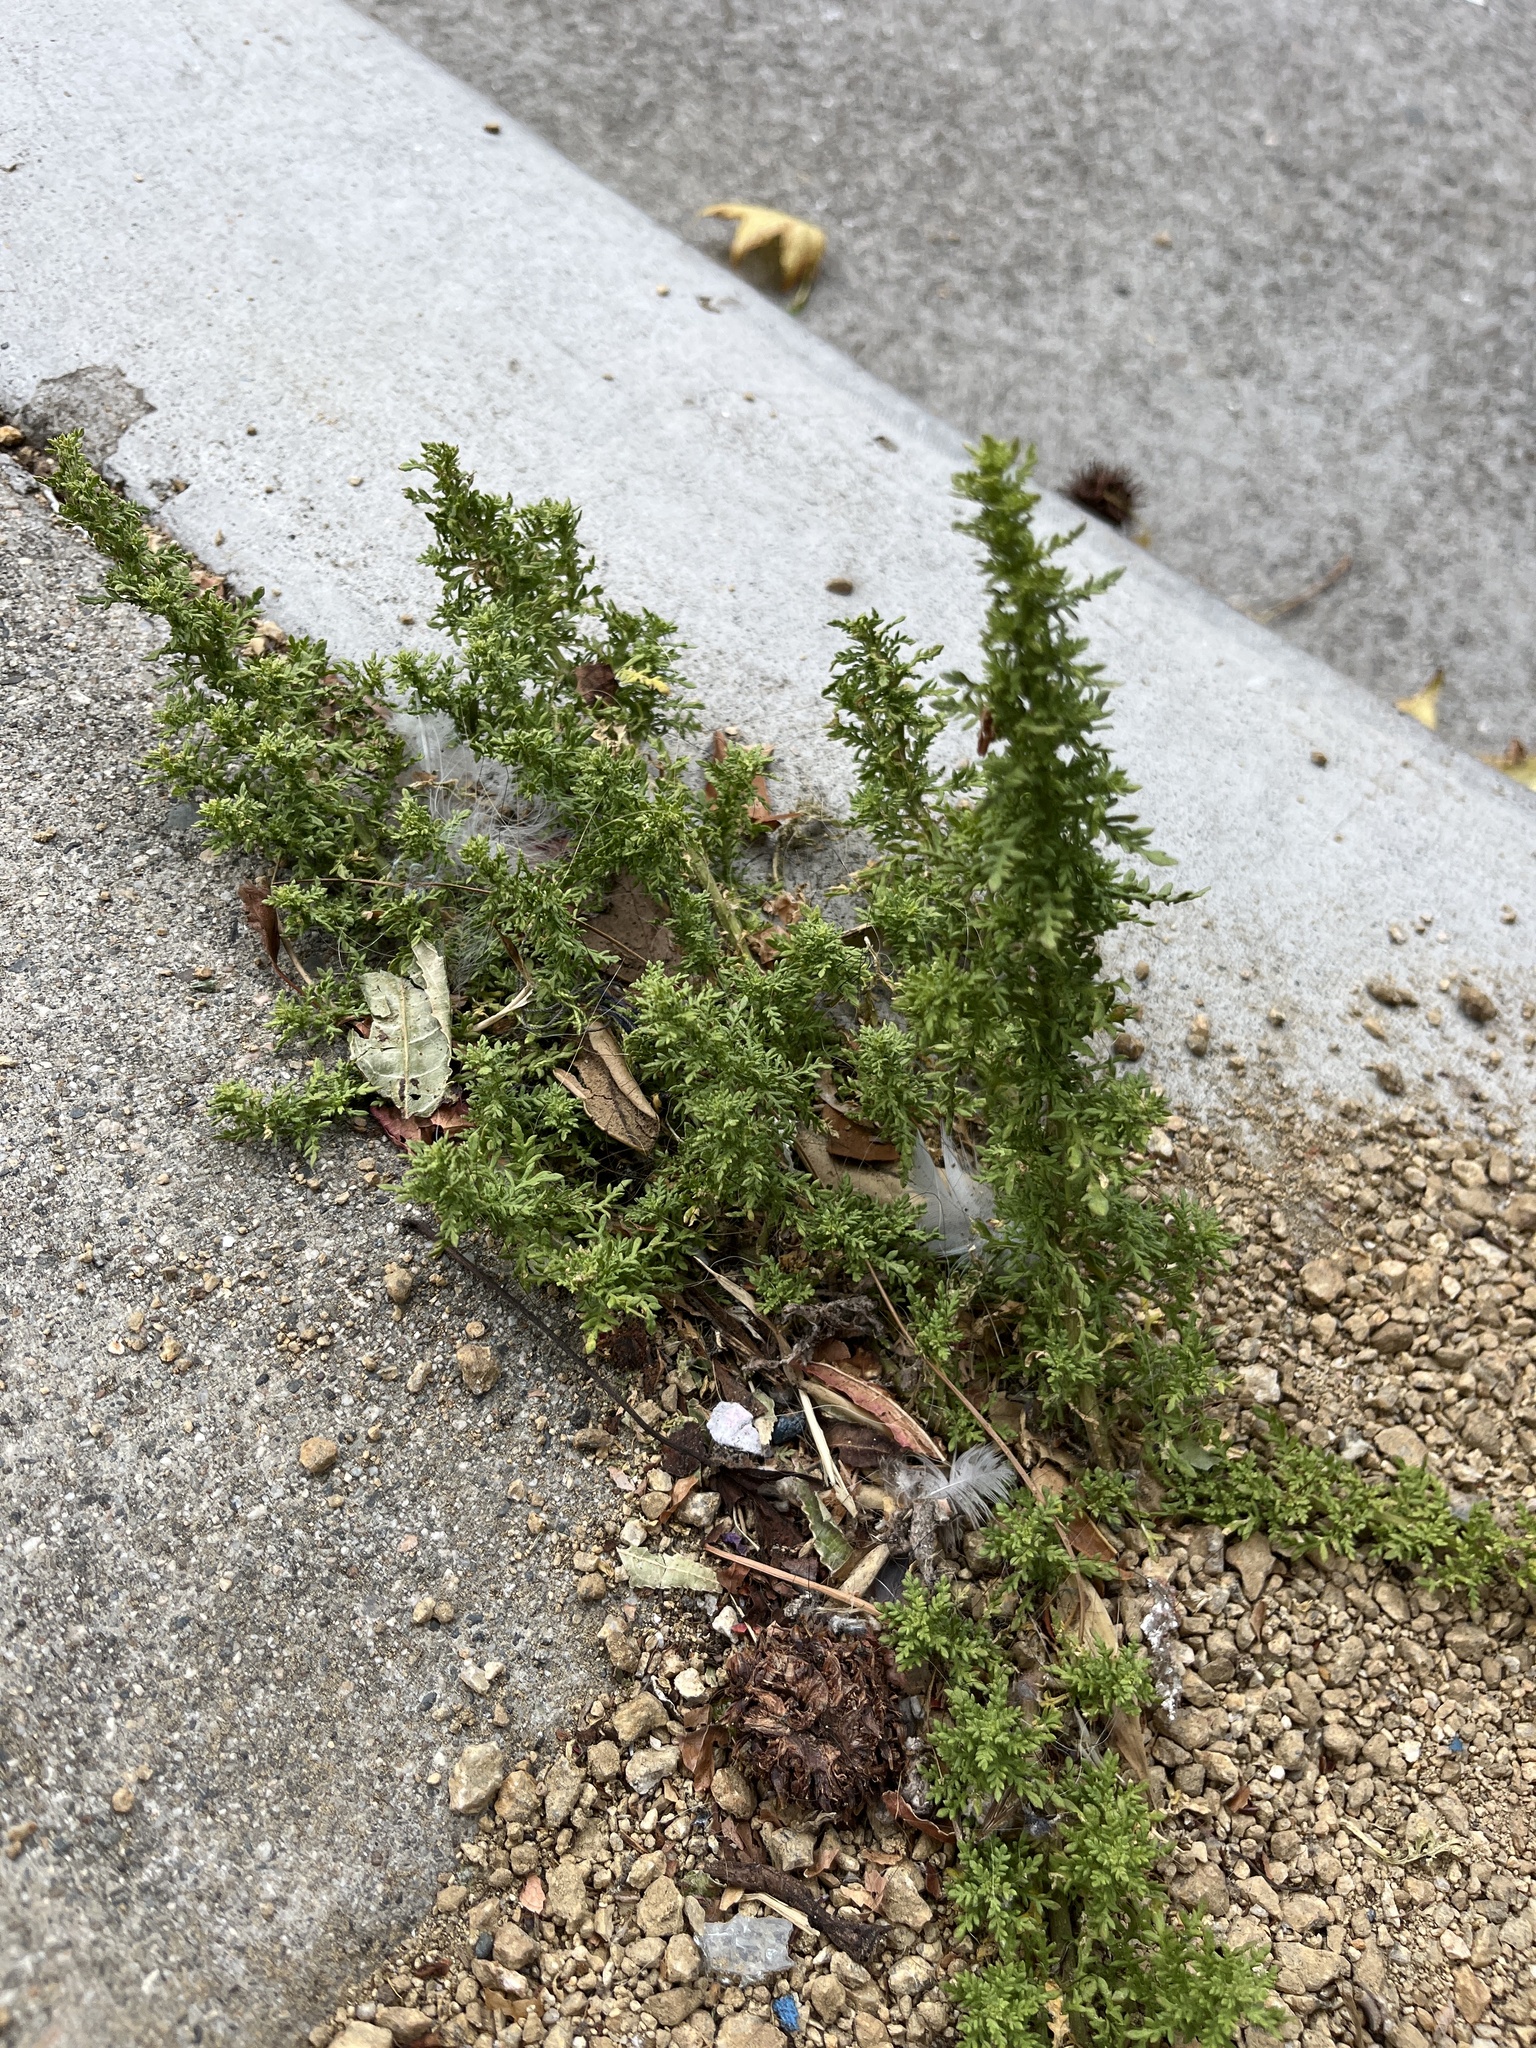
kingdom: Plantae
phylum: Tracheophyta
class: Magnoliopsida
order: Caryophyllales
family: Amaranthaceae
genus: Dysphania
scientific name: Dysphania ambrosioides
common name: Wormseed
